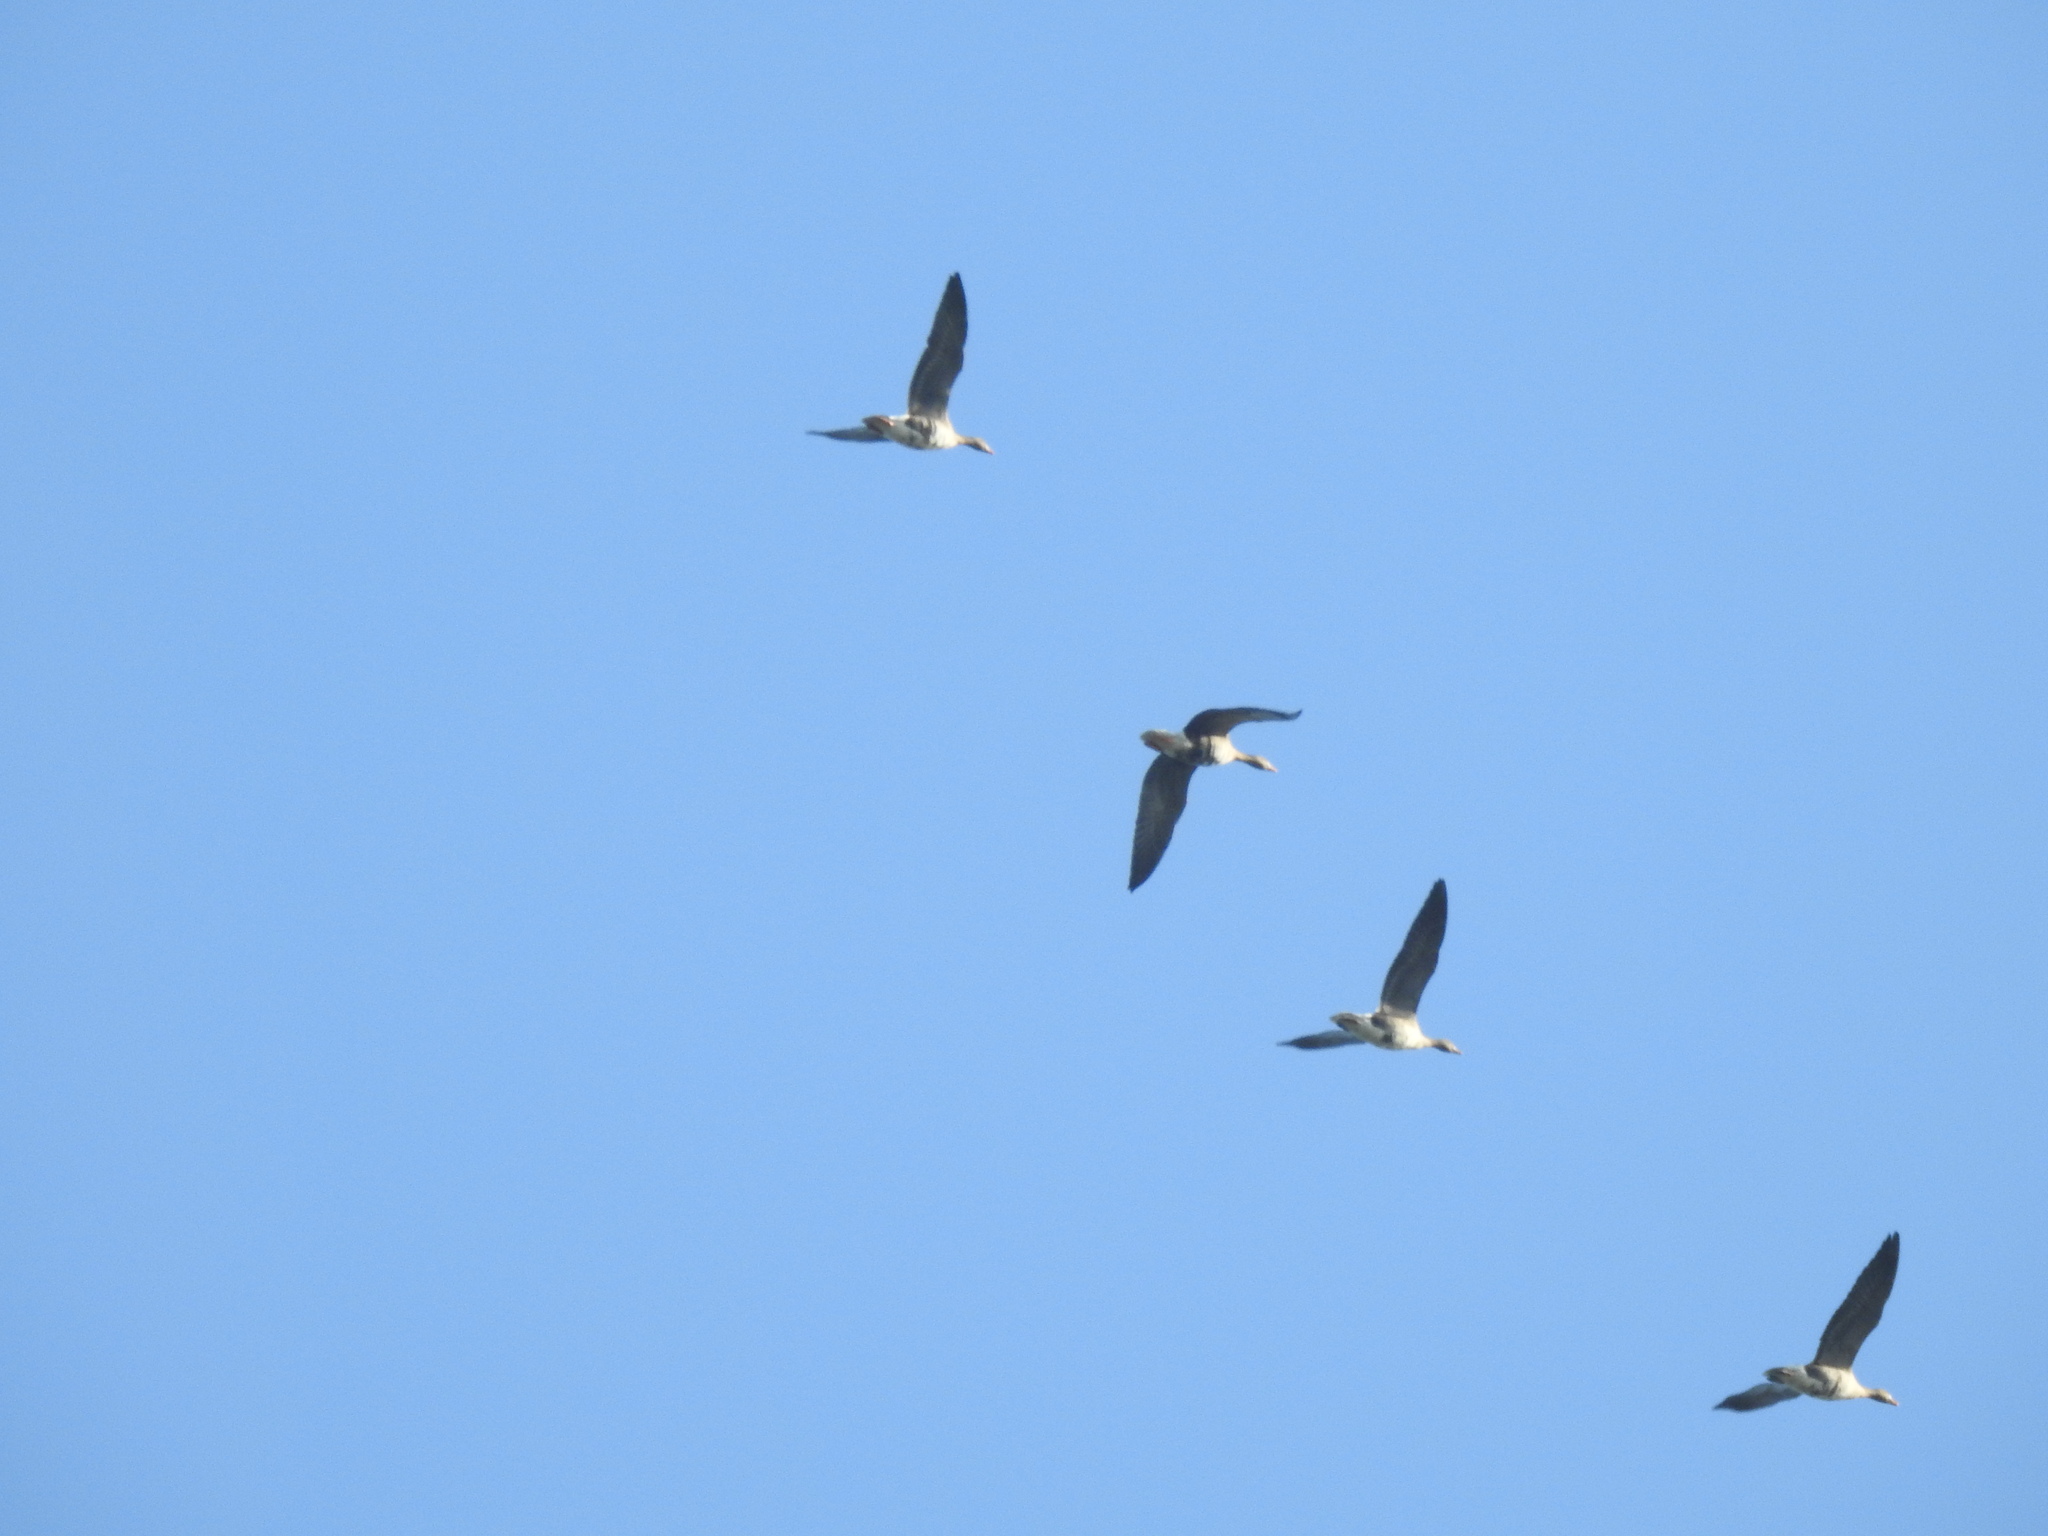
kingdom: Animalia
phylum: Chordata
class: Aves
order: Anseriformes
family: Anatidae
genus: Anser
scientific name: Anser albifrons
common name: Greater white-fronted goose
